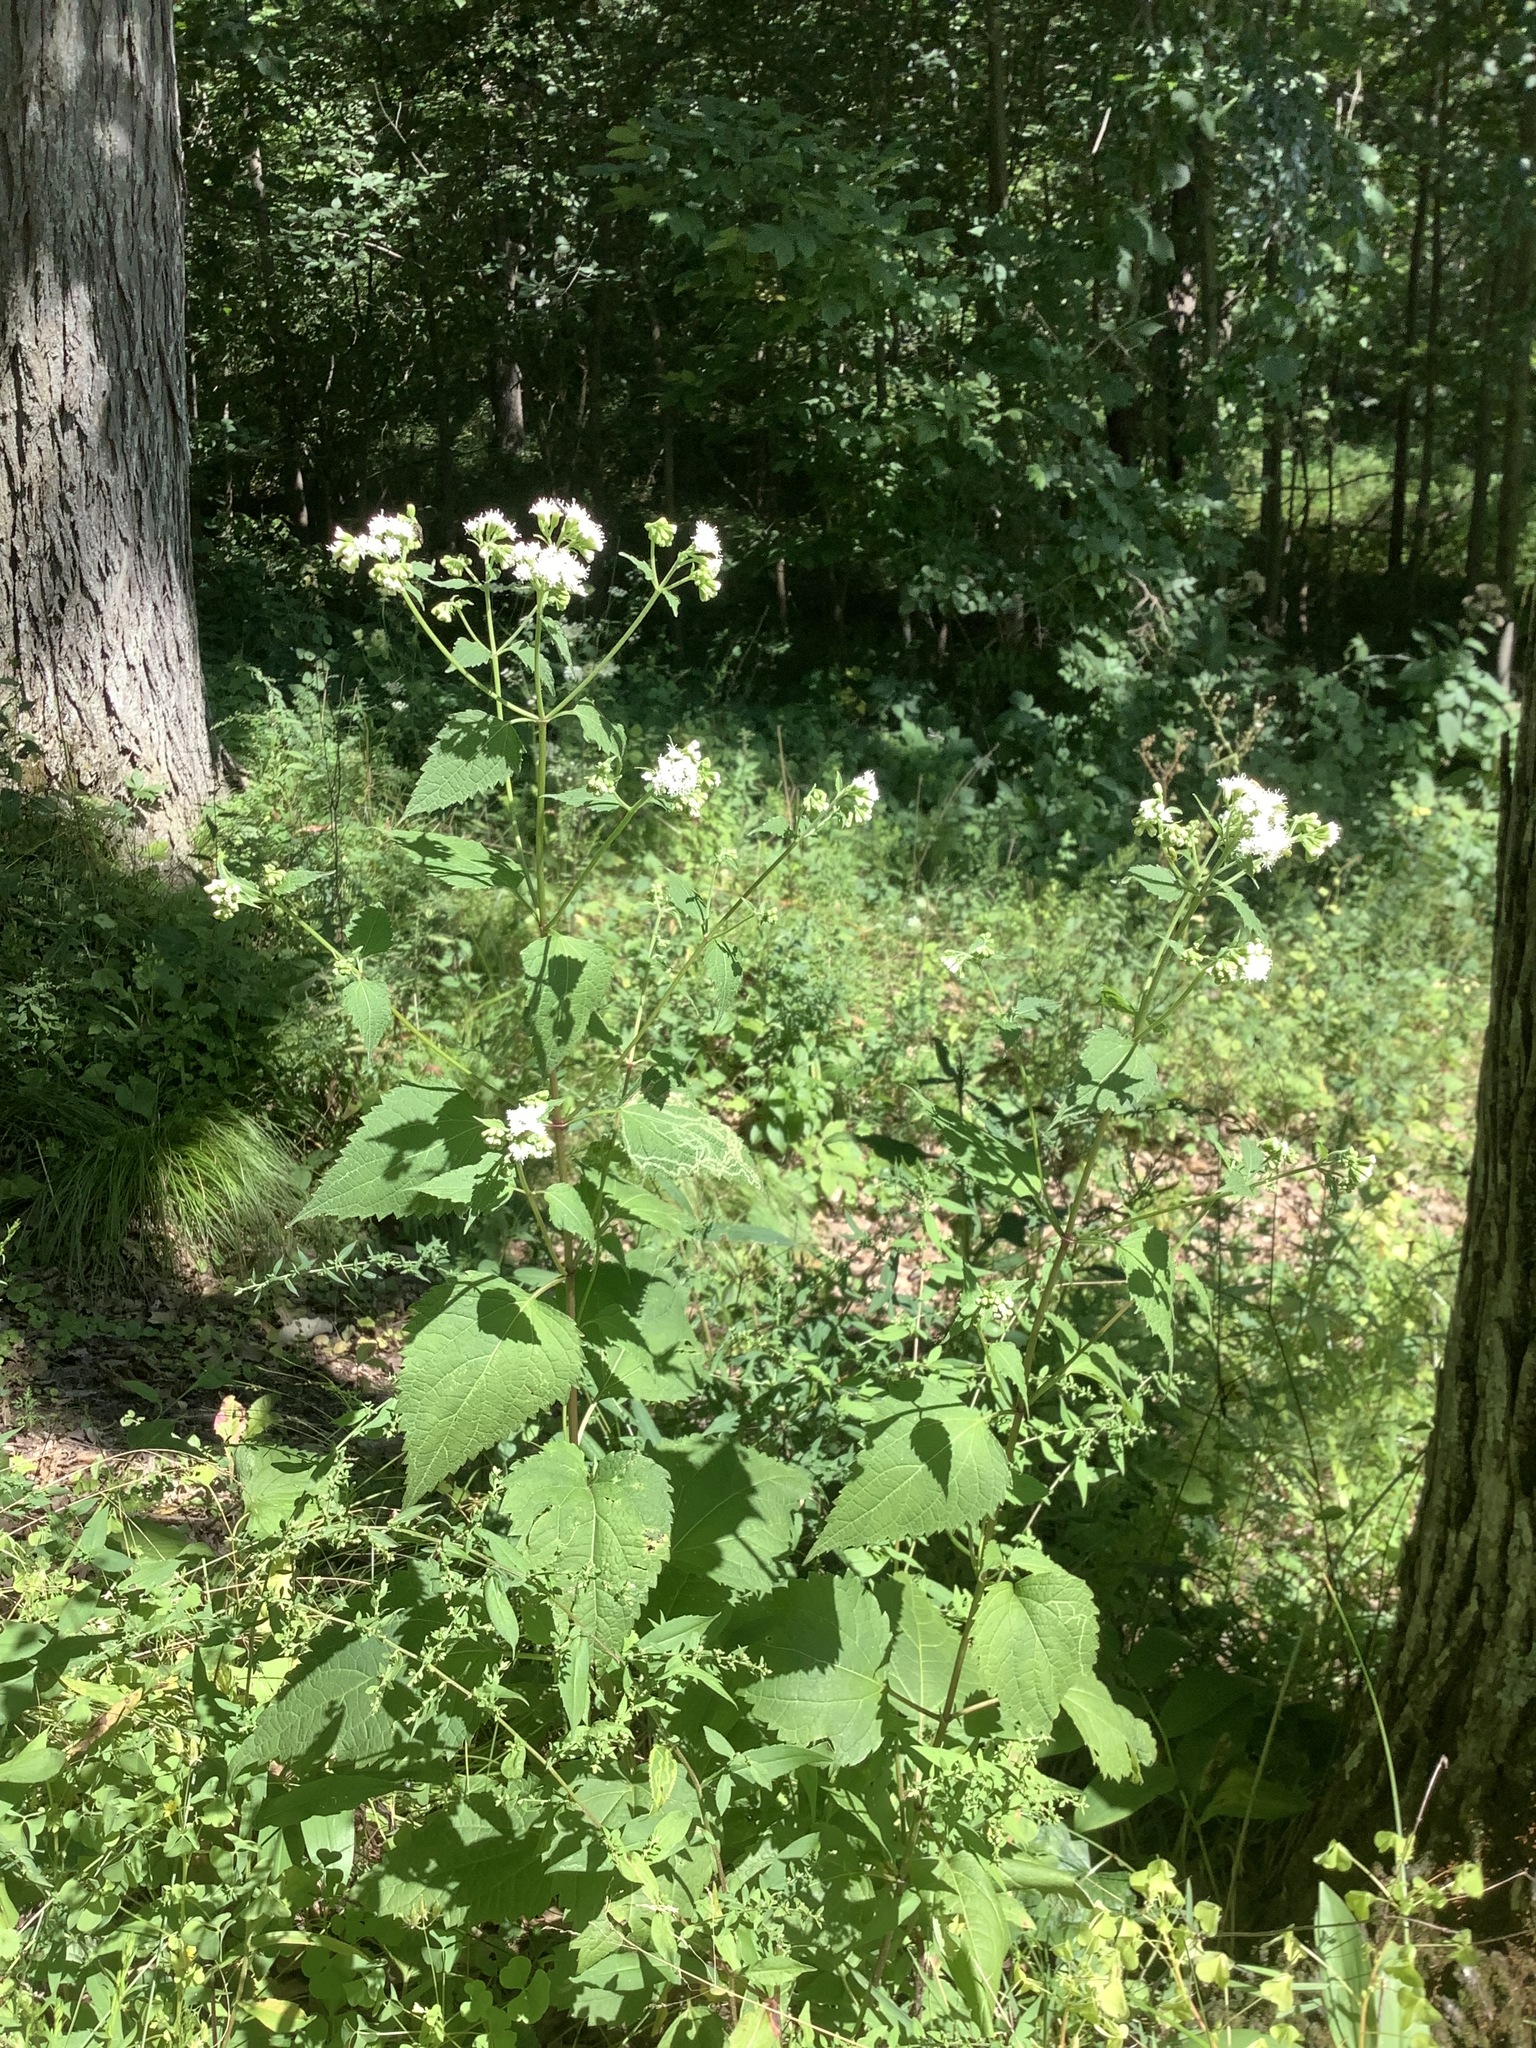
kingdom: Plantae
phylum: Tracheophyta
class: Magnoliopsida
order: Asterales
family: Asteraceae
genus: Ageratina
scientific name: Ageratina altissima
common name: White snakeroot
